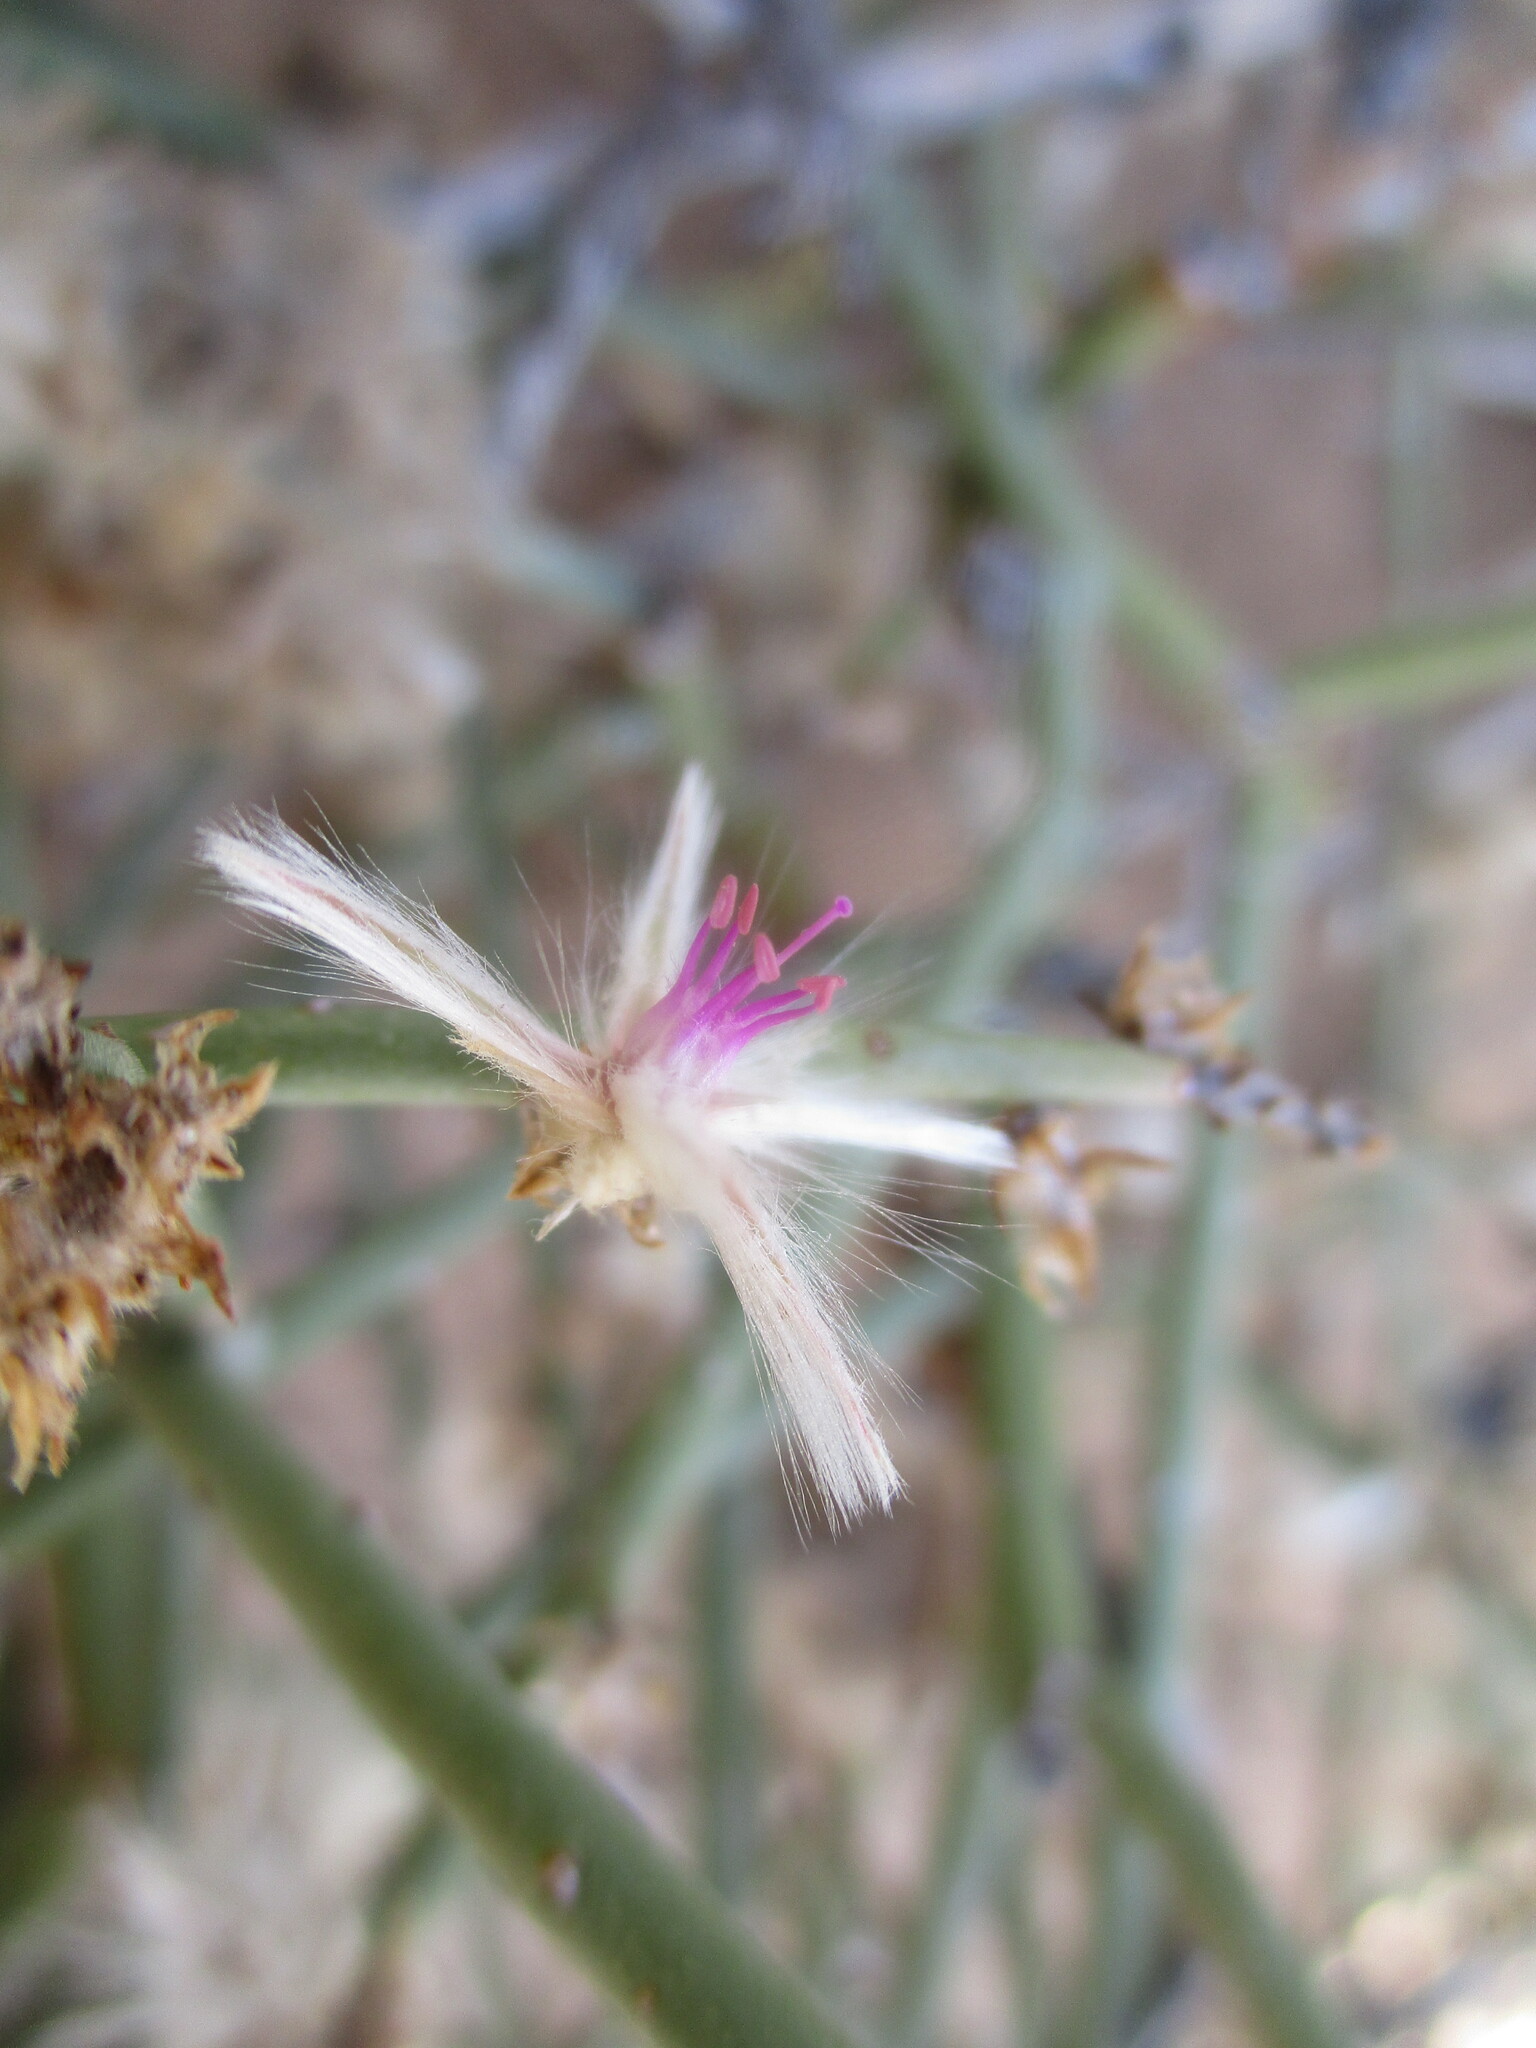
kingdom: Plantae
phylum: Tracheophyta
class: Magnoliopsida
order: Caryophyllales
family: Amaranthaceae
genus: Calicorema
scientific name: Calicorema capitata
